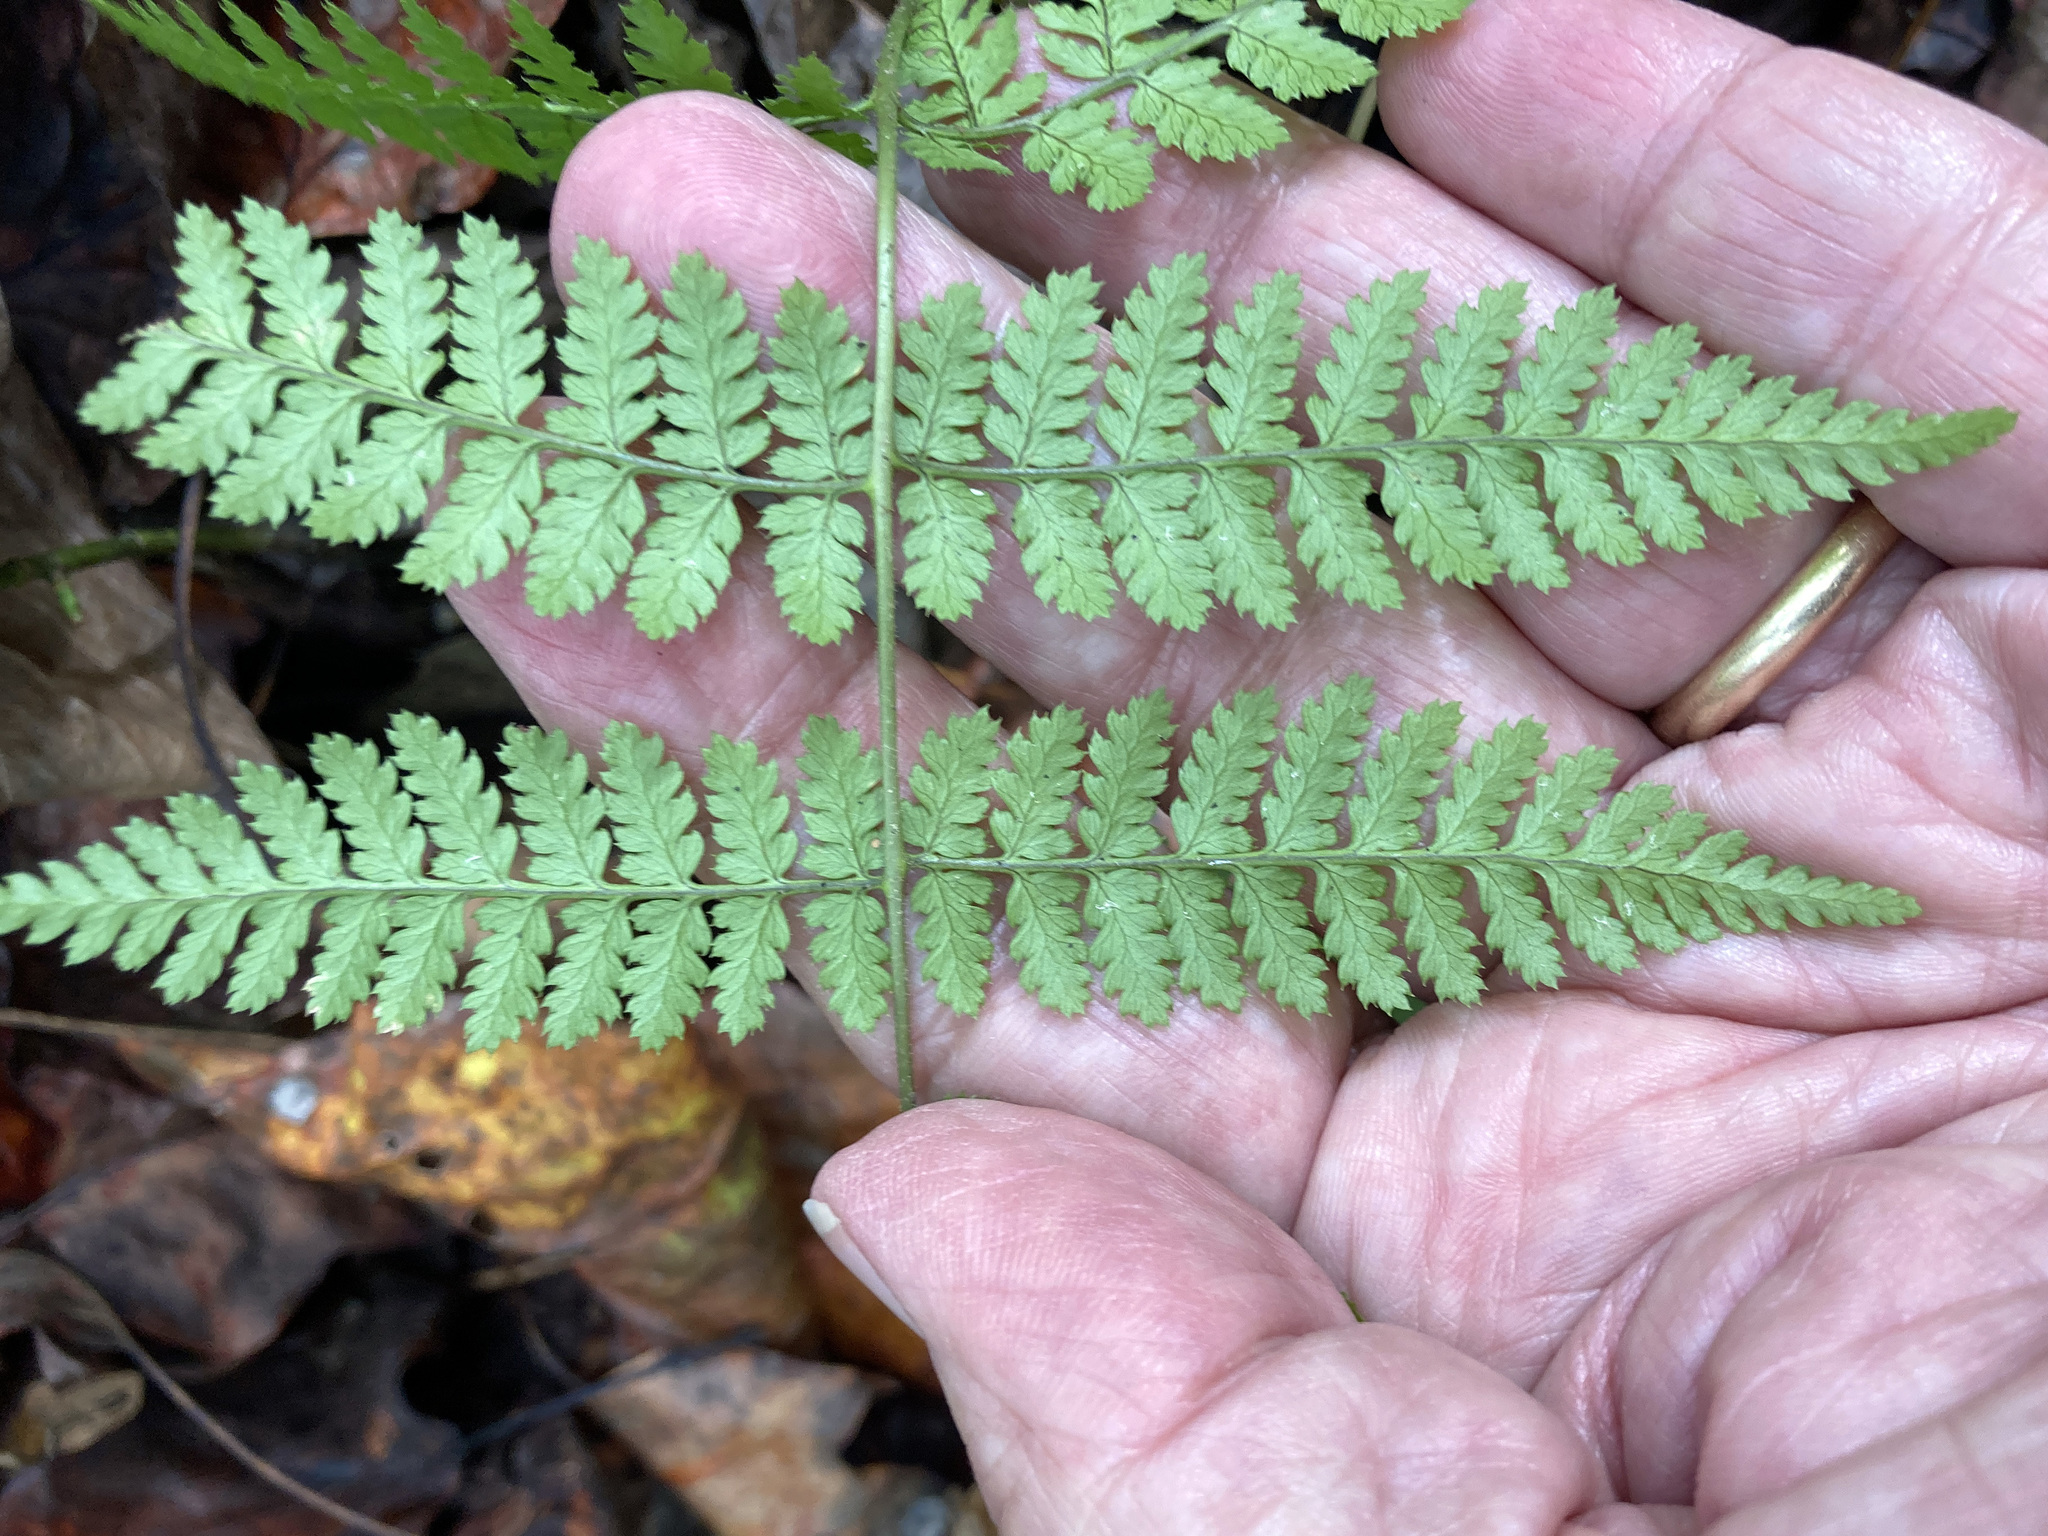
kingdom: Plantae
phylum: Tracheophyta
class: Polypodiopsida
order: Polypodiales
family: Dryopteridaceae
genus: Dryopteris
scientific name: Dryopteris intermedia
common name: Evergreen wood fern
